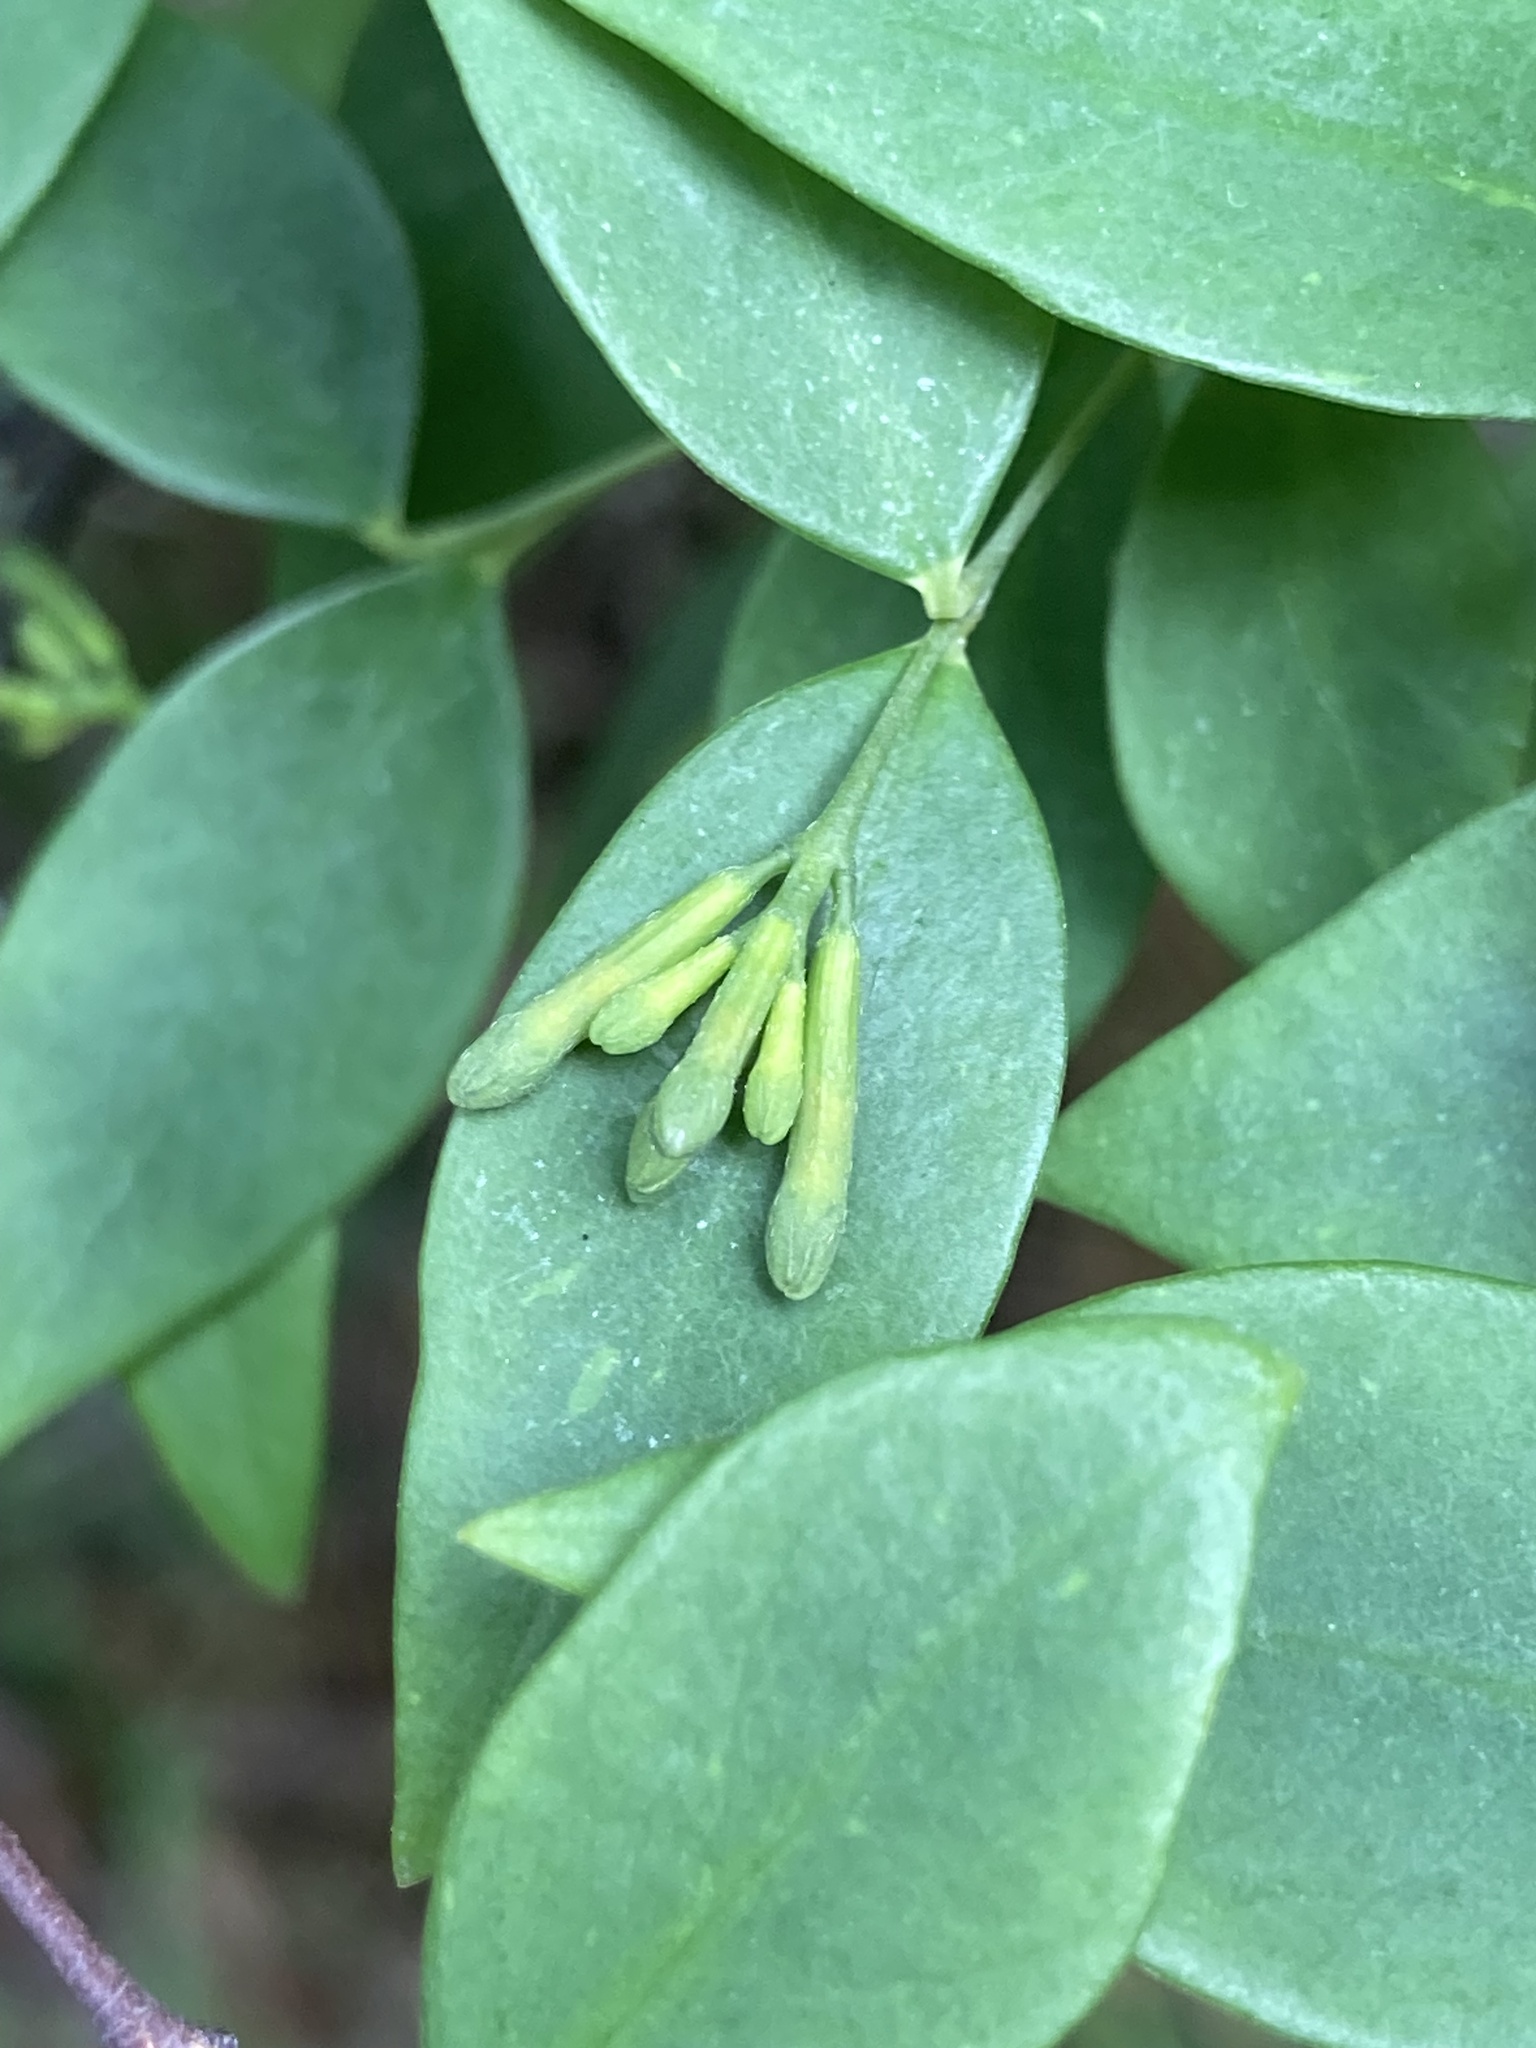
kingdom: Plantae
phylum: Tracheophyta
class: Magnoliopsida
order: Malvales
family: Thymelaeaceae
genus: Wikstroemia
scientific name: Wikstroemia nutans
